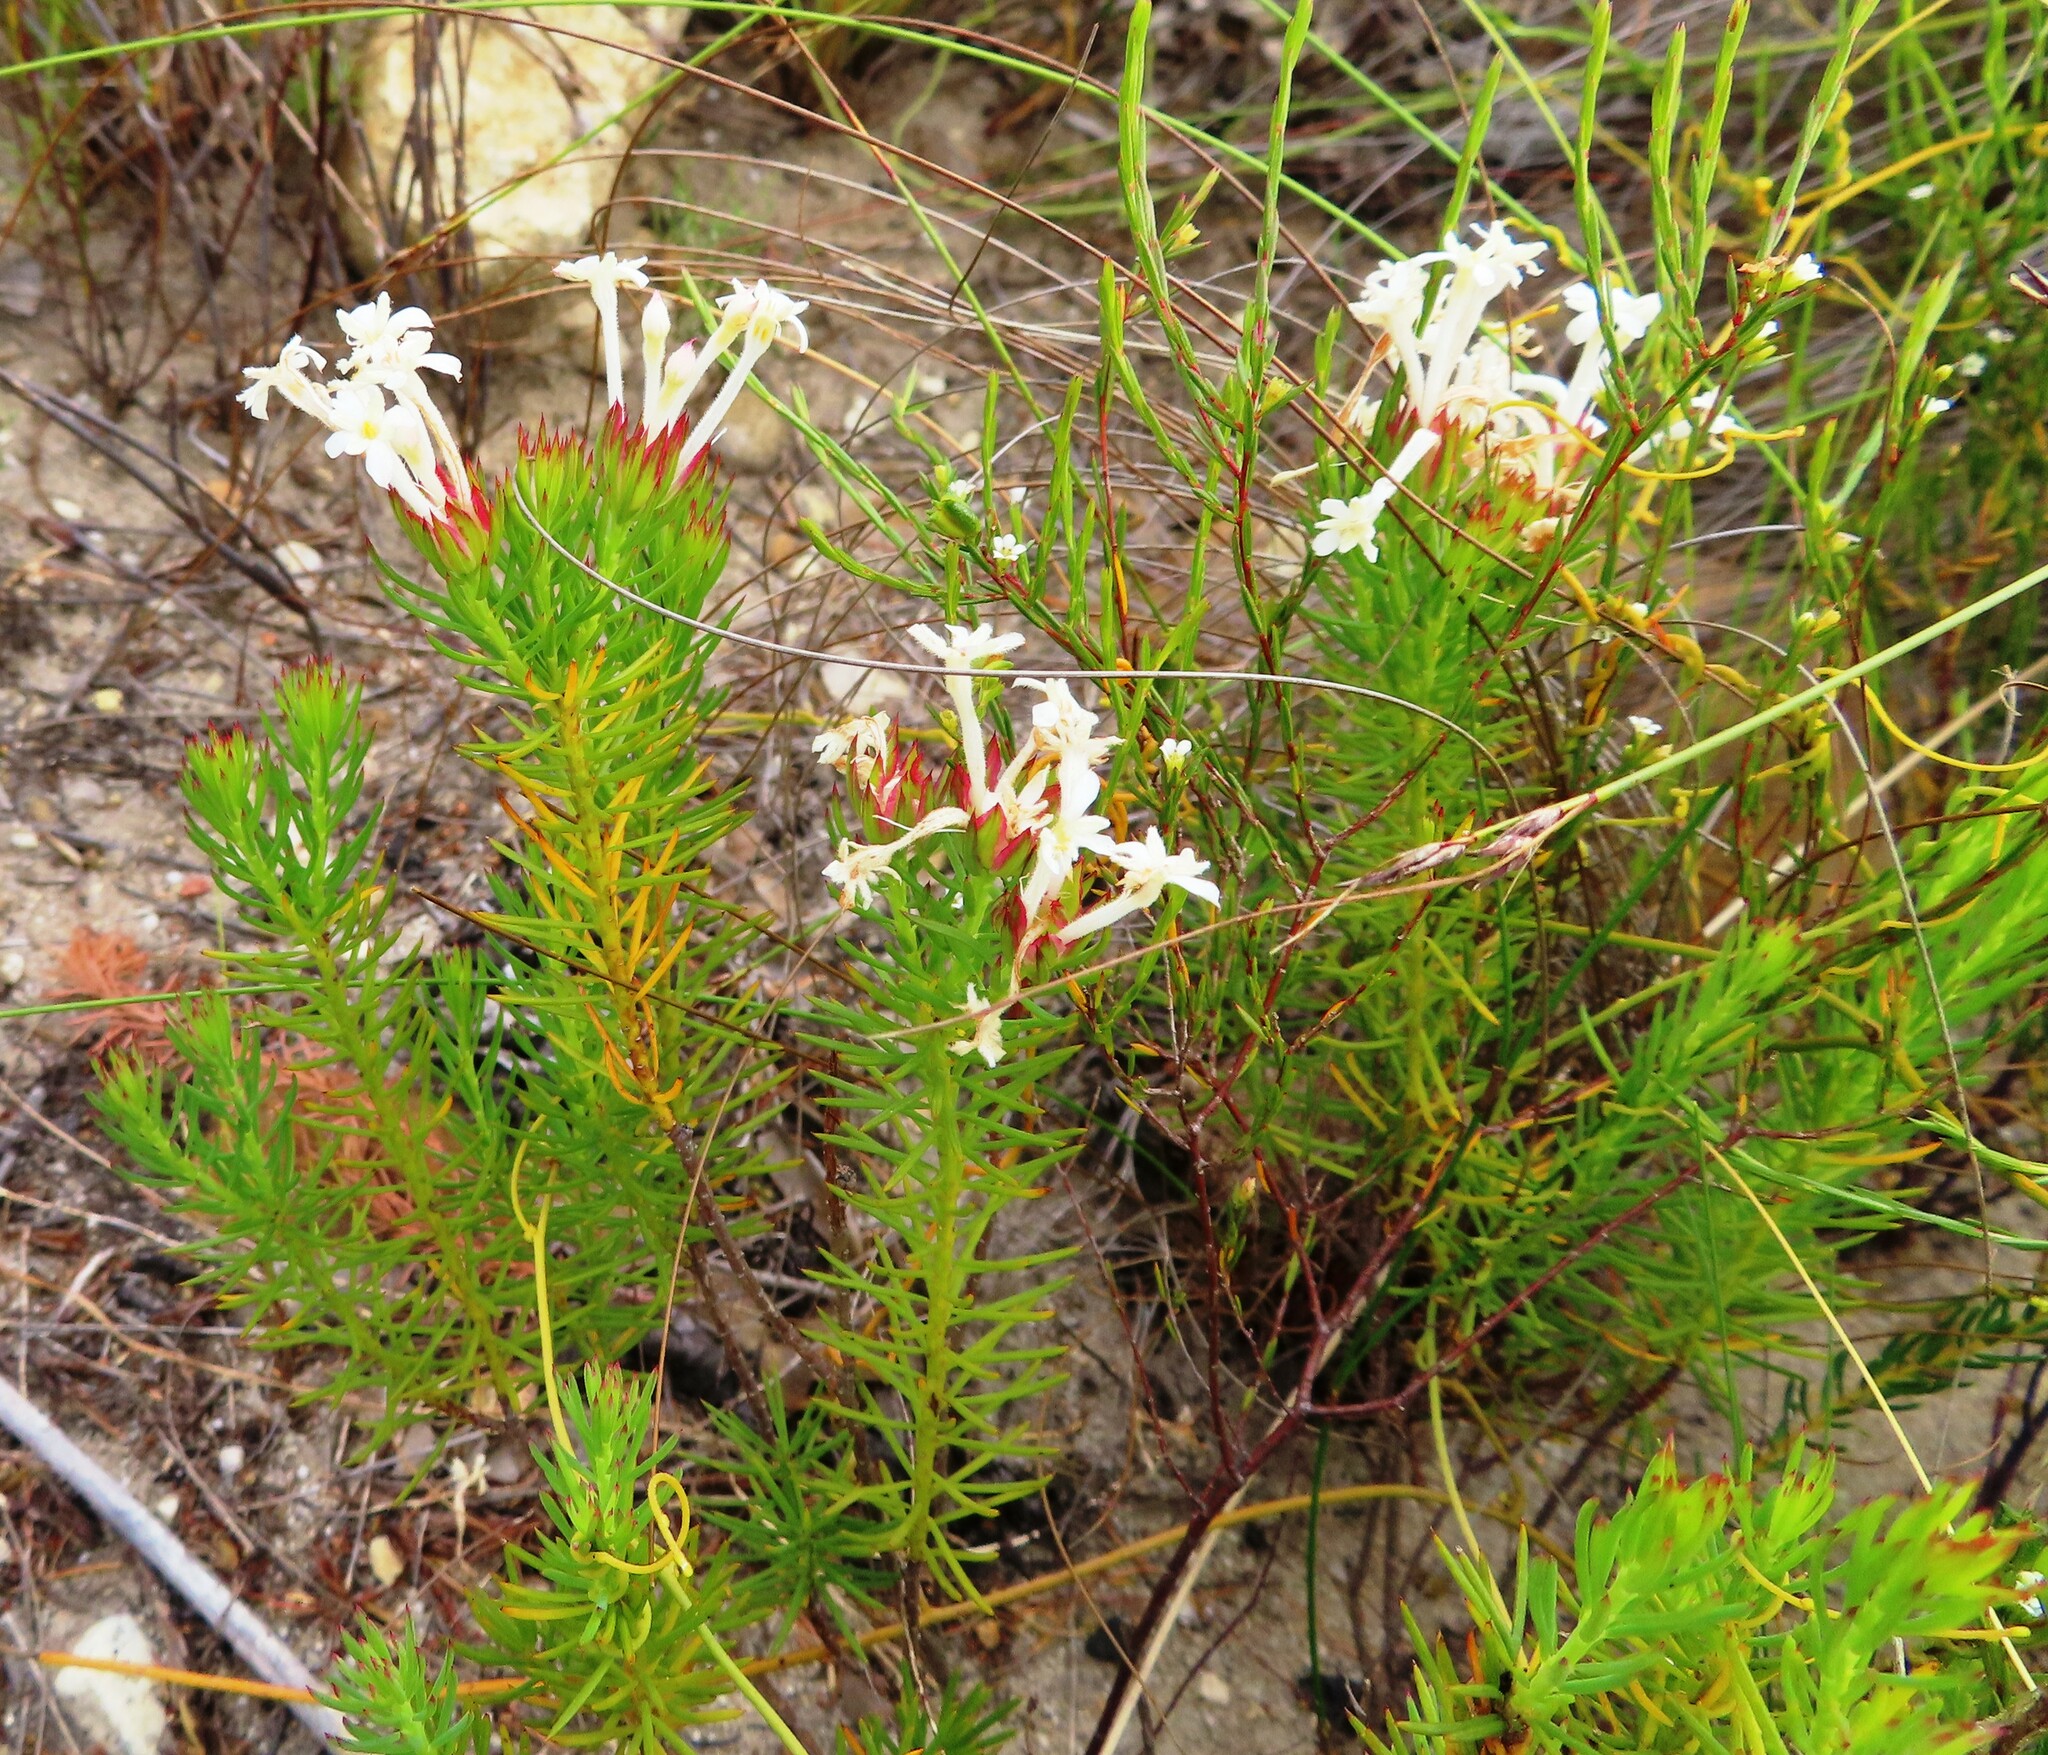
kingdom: Plantae
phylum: Tracheophyta
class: Magnoliopsida
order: Malvales
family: Thymelaeaceae
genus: Gnidia
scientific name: Gnidia pinifolia
